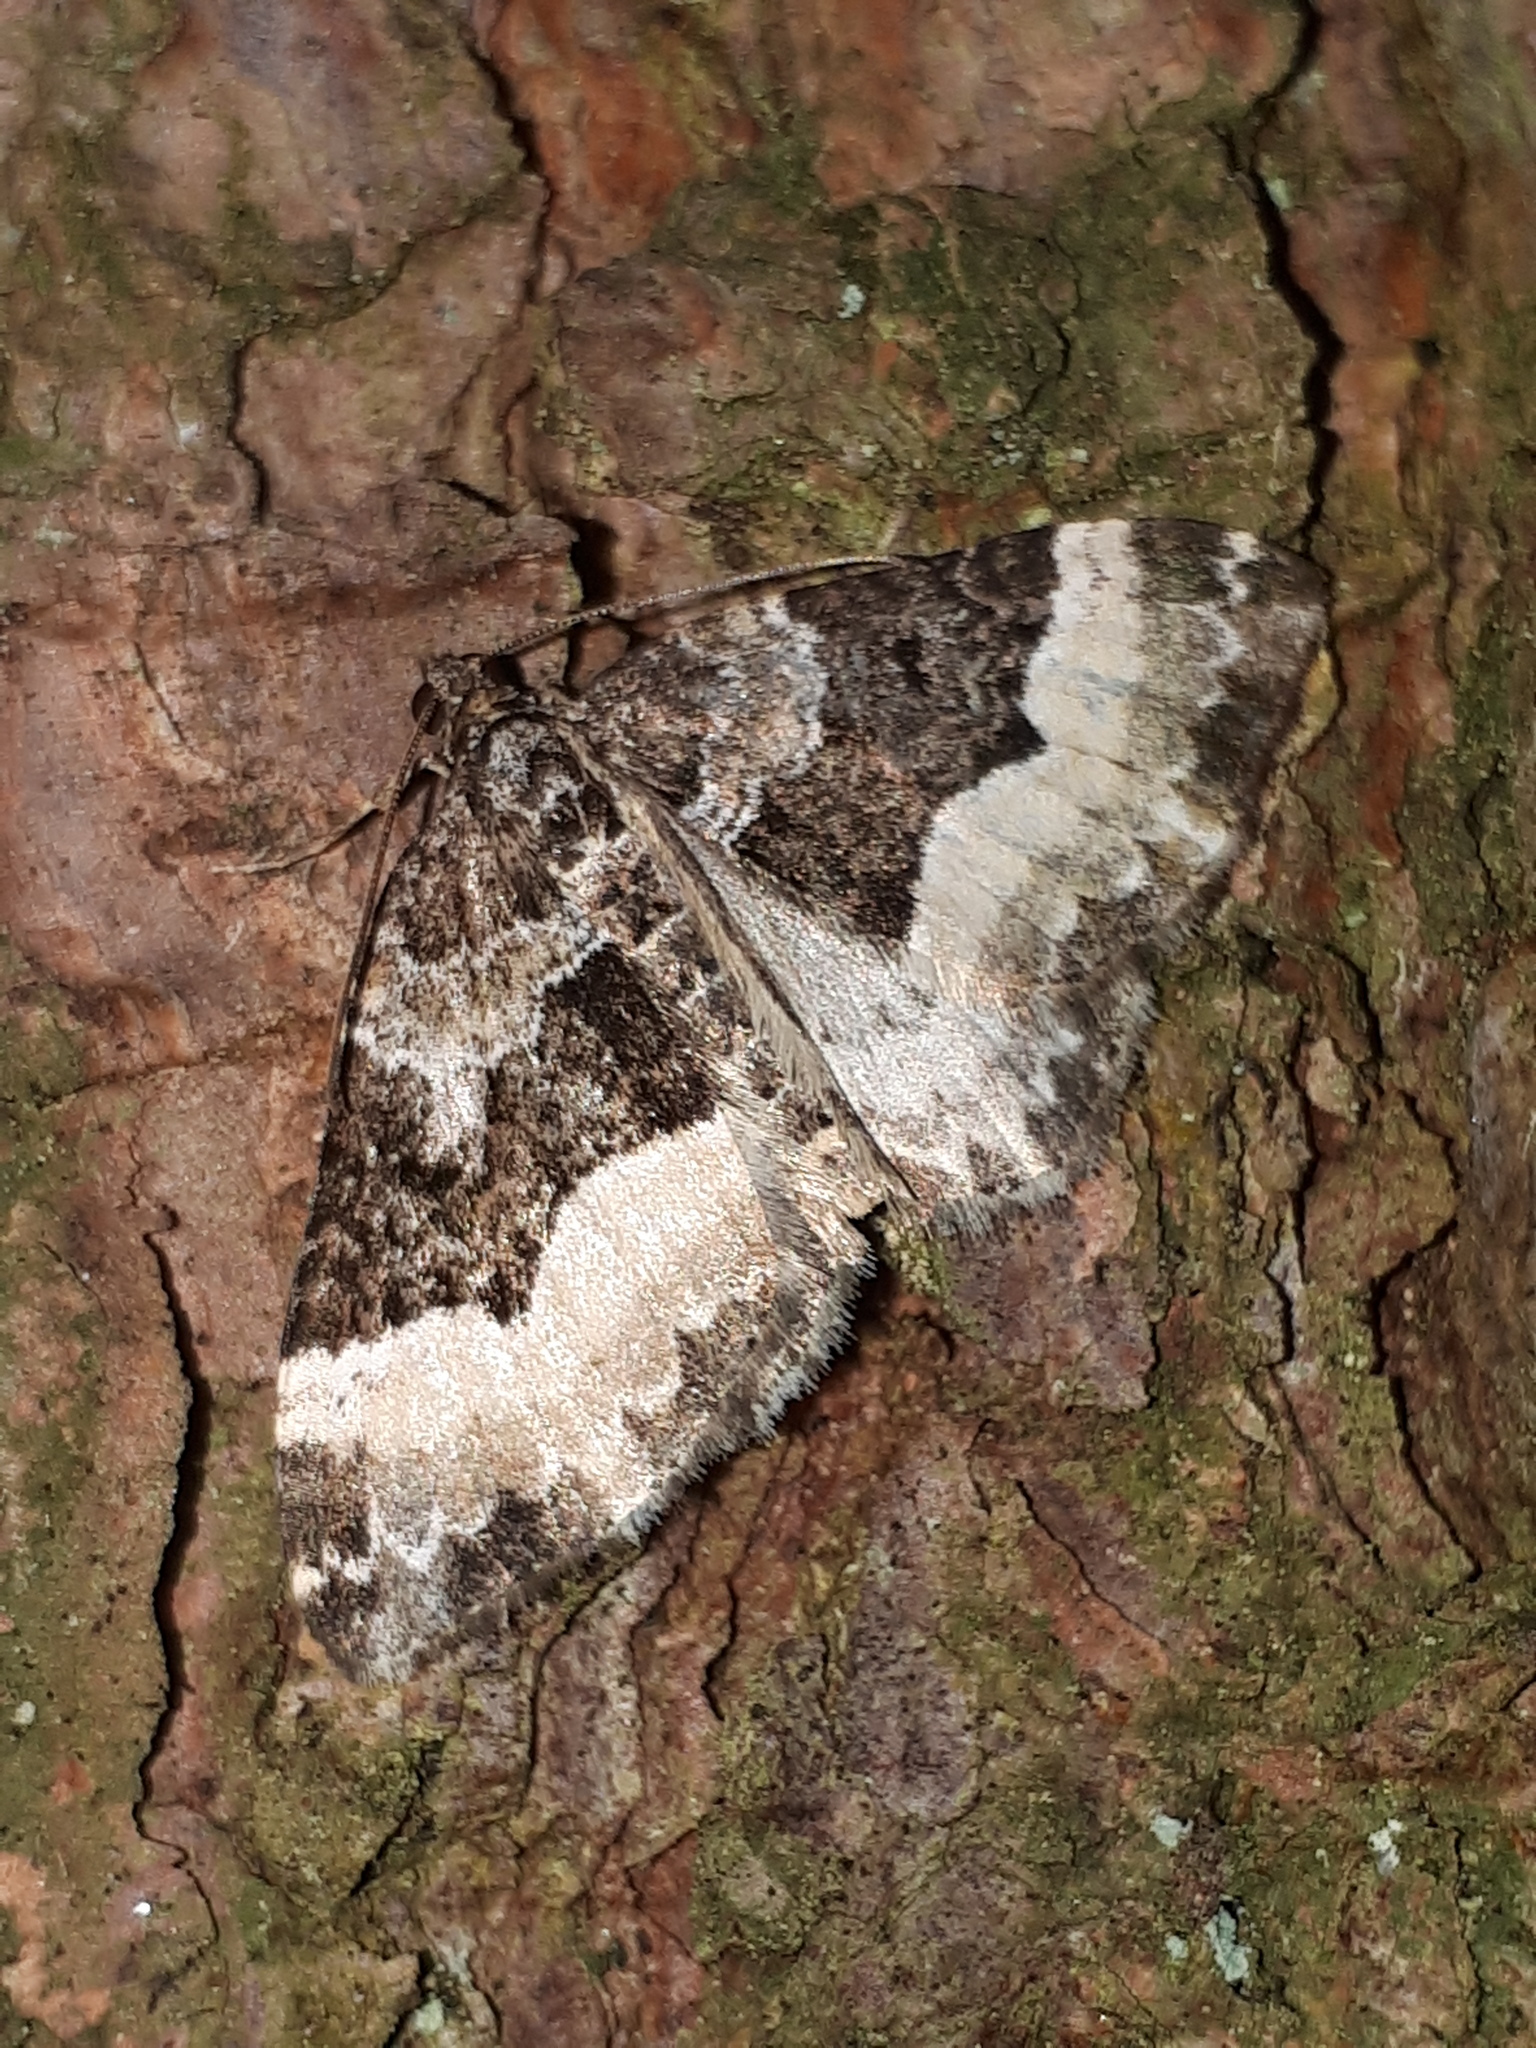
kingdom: Animalia
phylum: Arthropoda
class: Insecta
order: Lepidoptera
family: Geometridae
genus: Euphyia
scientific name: Euphyia unangulata
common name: Sharp-angled carpet
